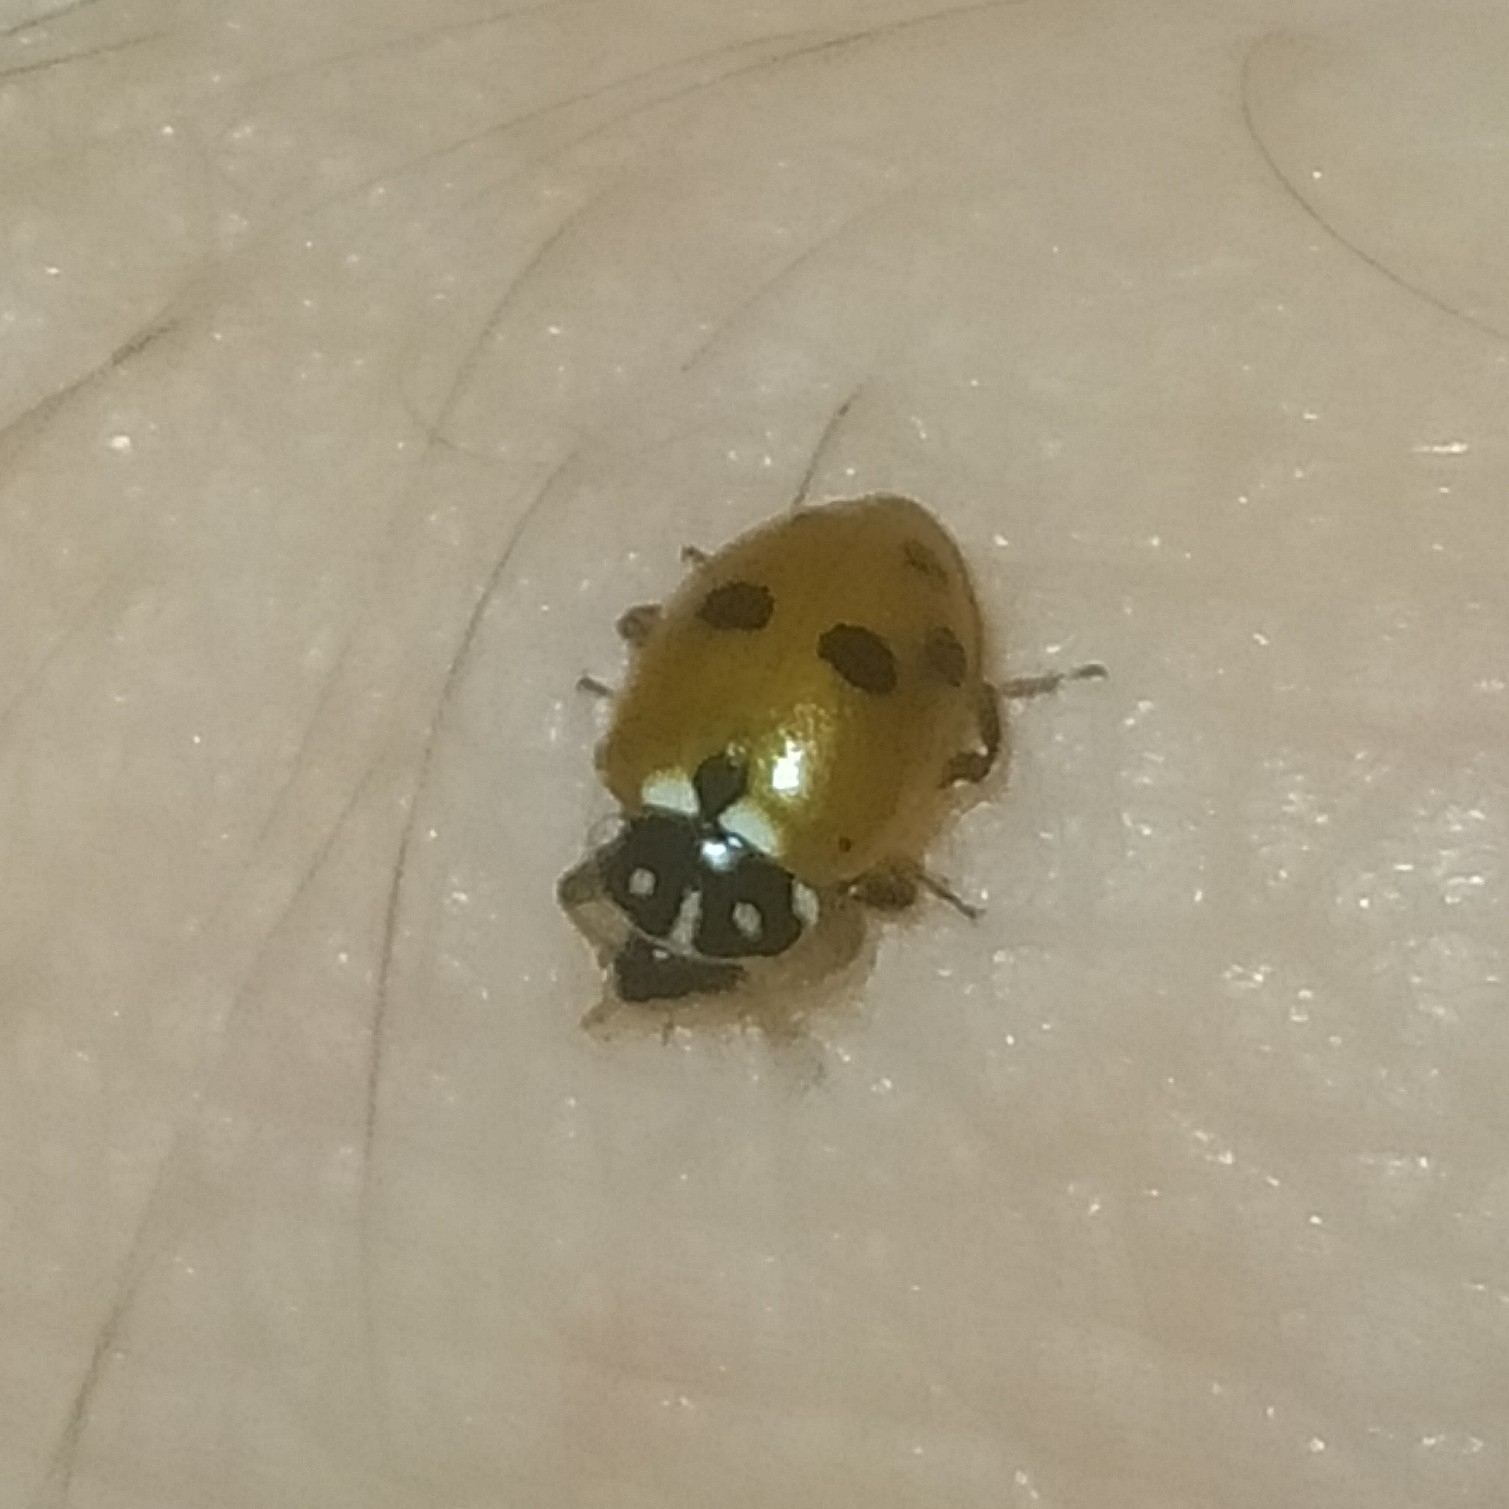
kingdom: Animalia
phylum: Arthropoda
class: Insecta
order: Coleoptera
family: Coccinellidae
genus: Hippodamia
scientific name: Hippodamia variegata
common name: Ladybird beetle
